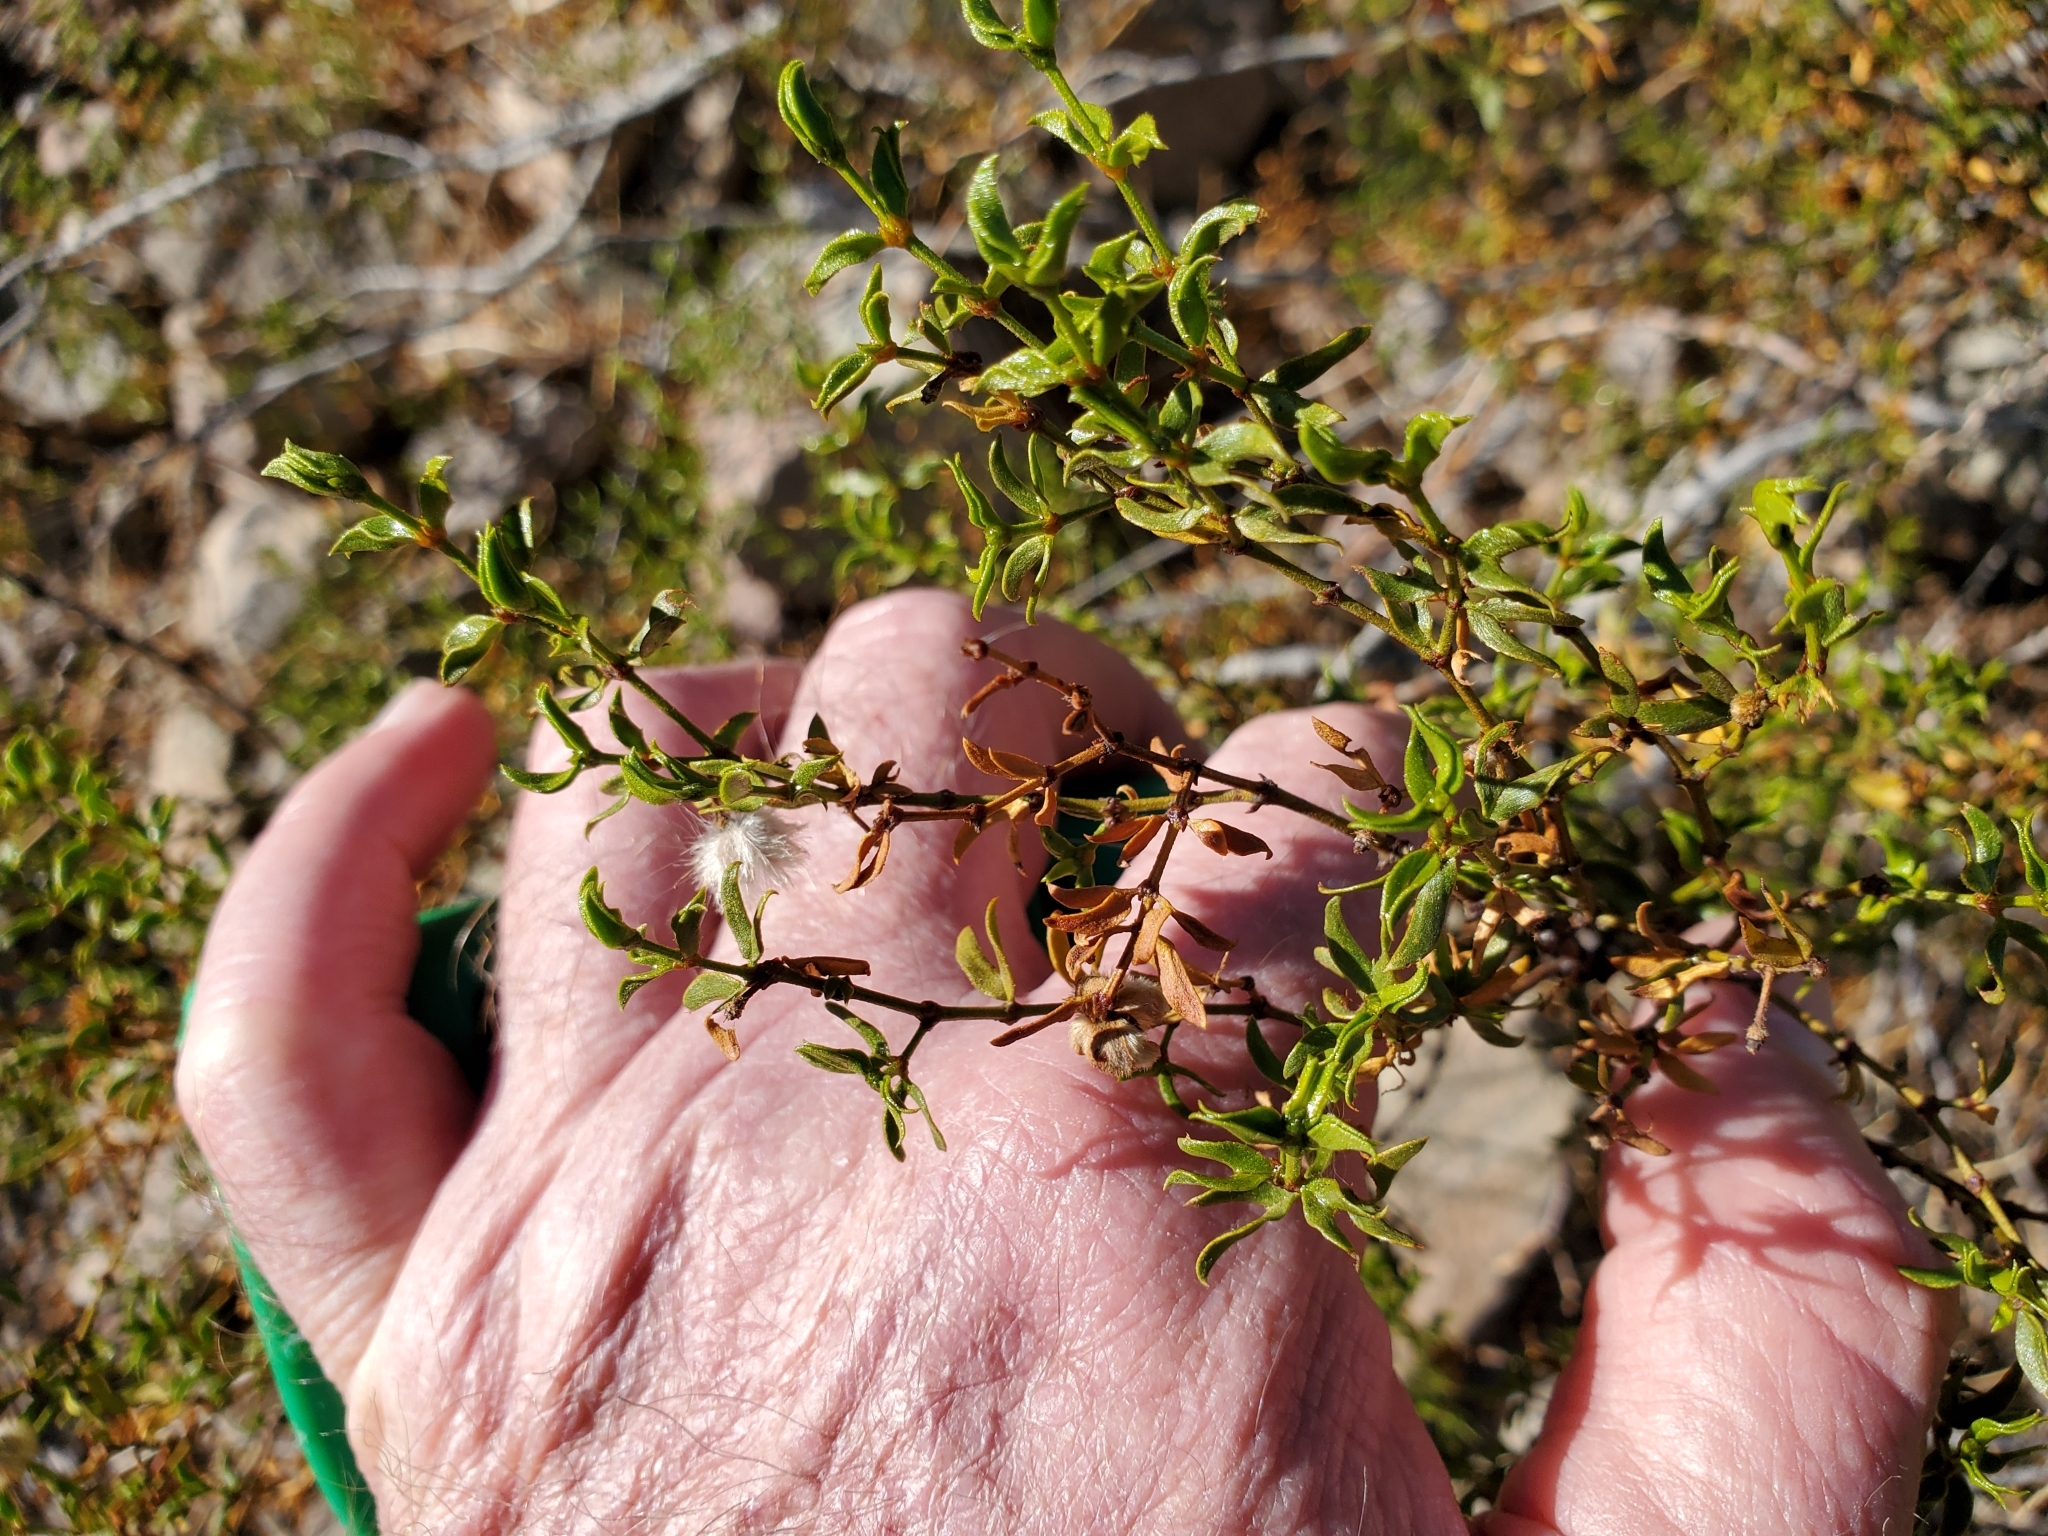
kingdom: Plantae
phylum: Tracheophyta
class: Magnoliopsida
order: Zygophyllales
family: Zygophyllaceae
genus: Larrea
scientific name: Larrea tridentata
